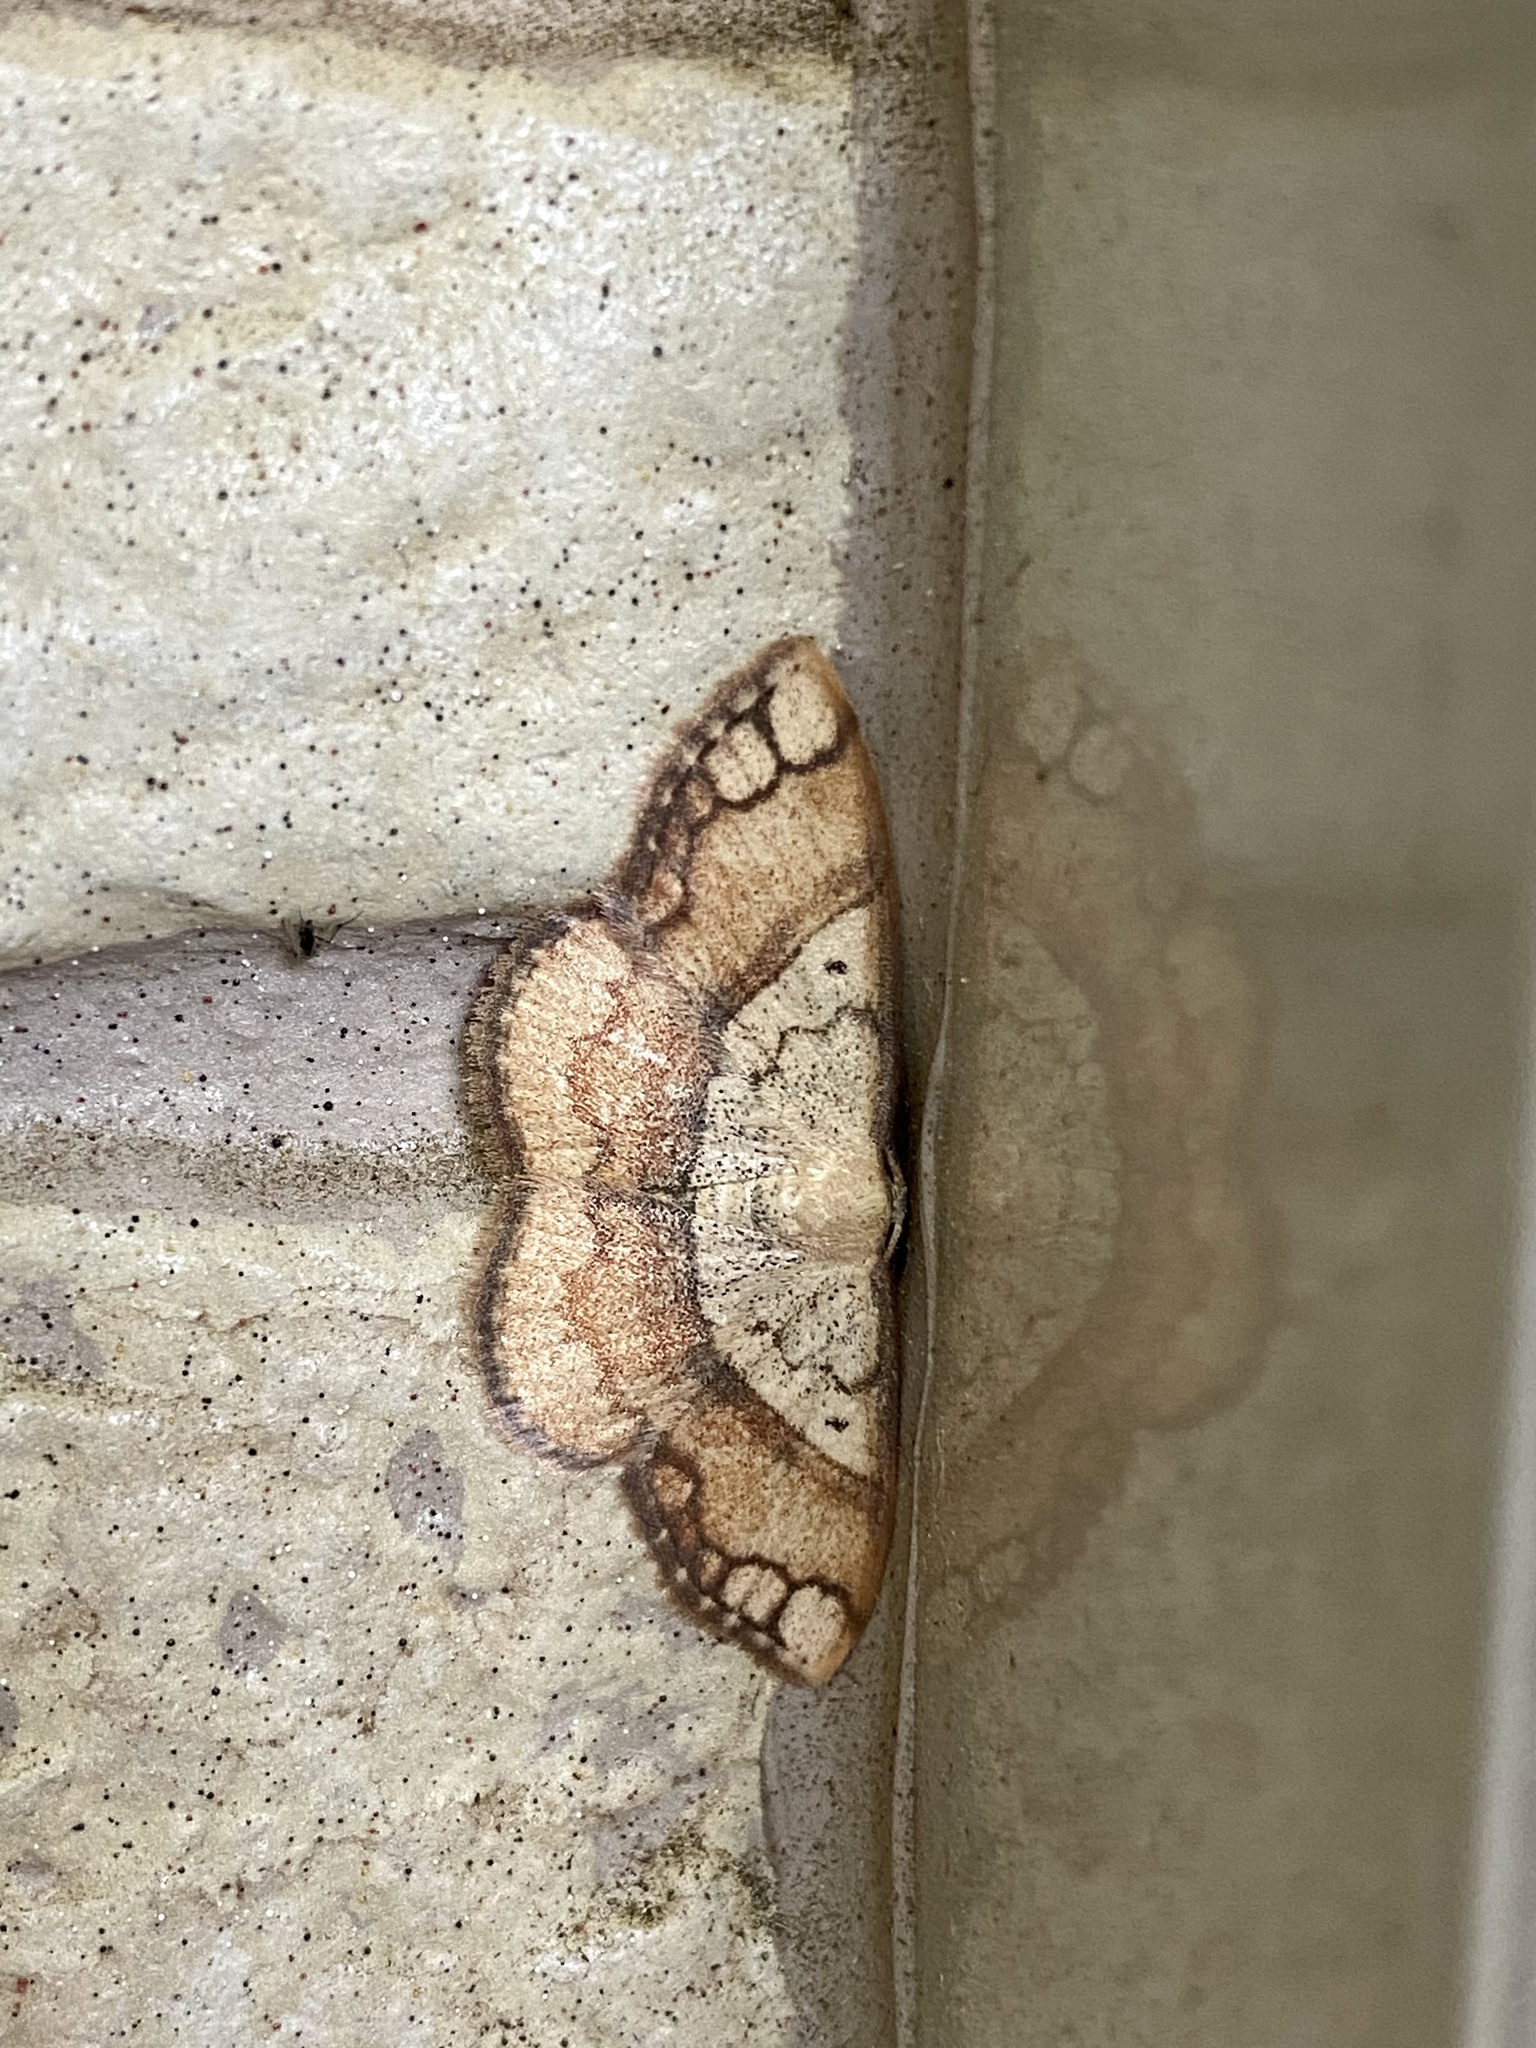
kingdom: Animalia
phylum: Arthropoda
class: Insecta
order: Lepidoptera
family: Geometridae
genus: Pylargosceles
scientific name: Pylargosceles steganioides
